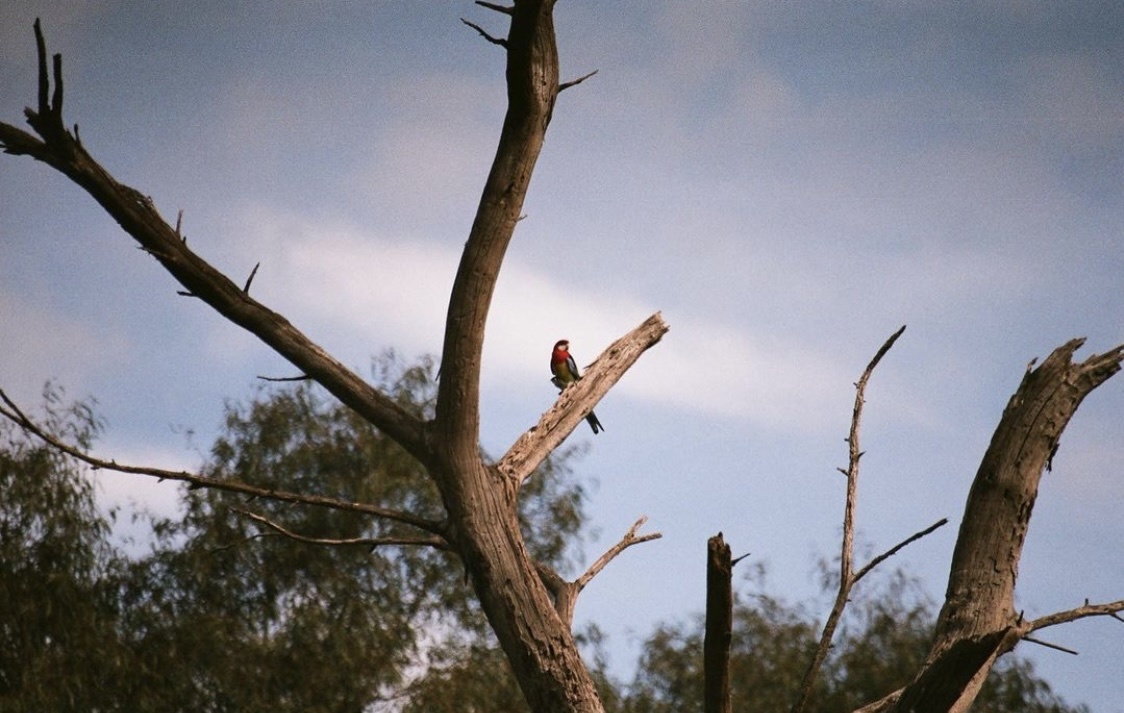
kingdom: Animalia
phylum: Chordata
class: Aves
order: Psittaciformes
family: Psittacidae
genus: Platycercus
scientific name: Platycercus eximius
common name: Eastern rosella
